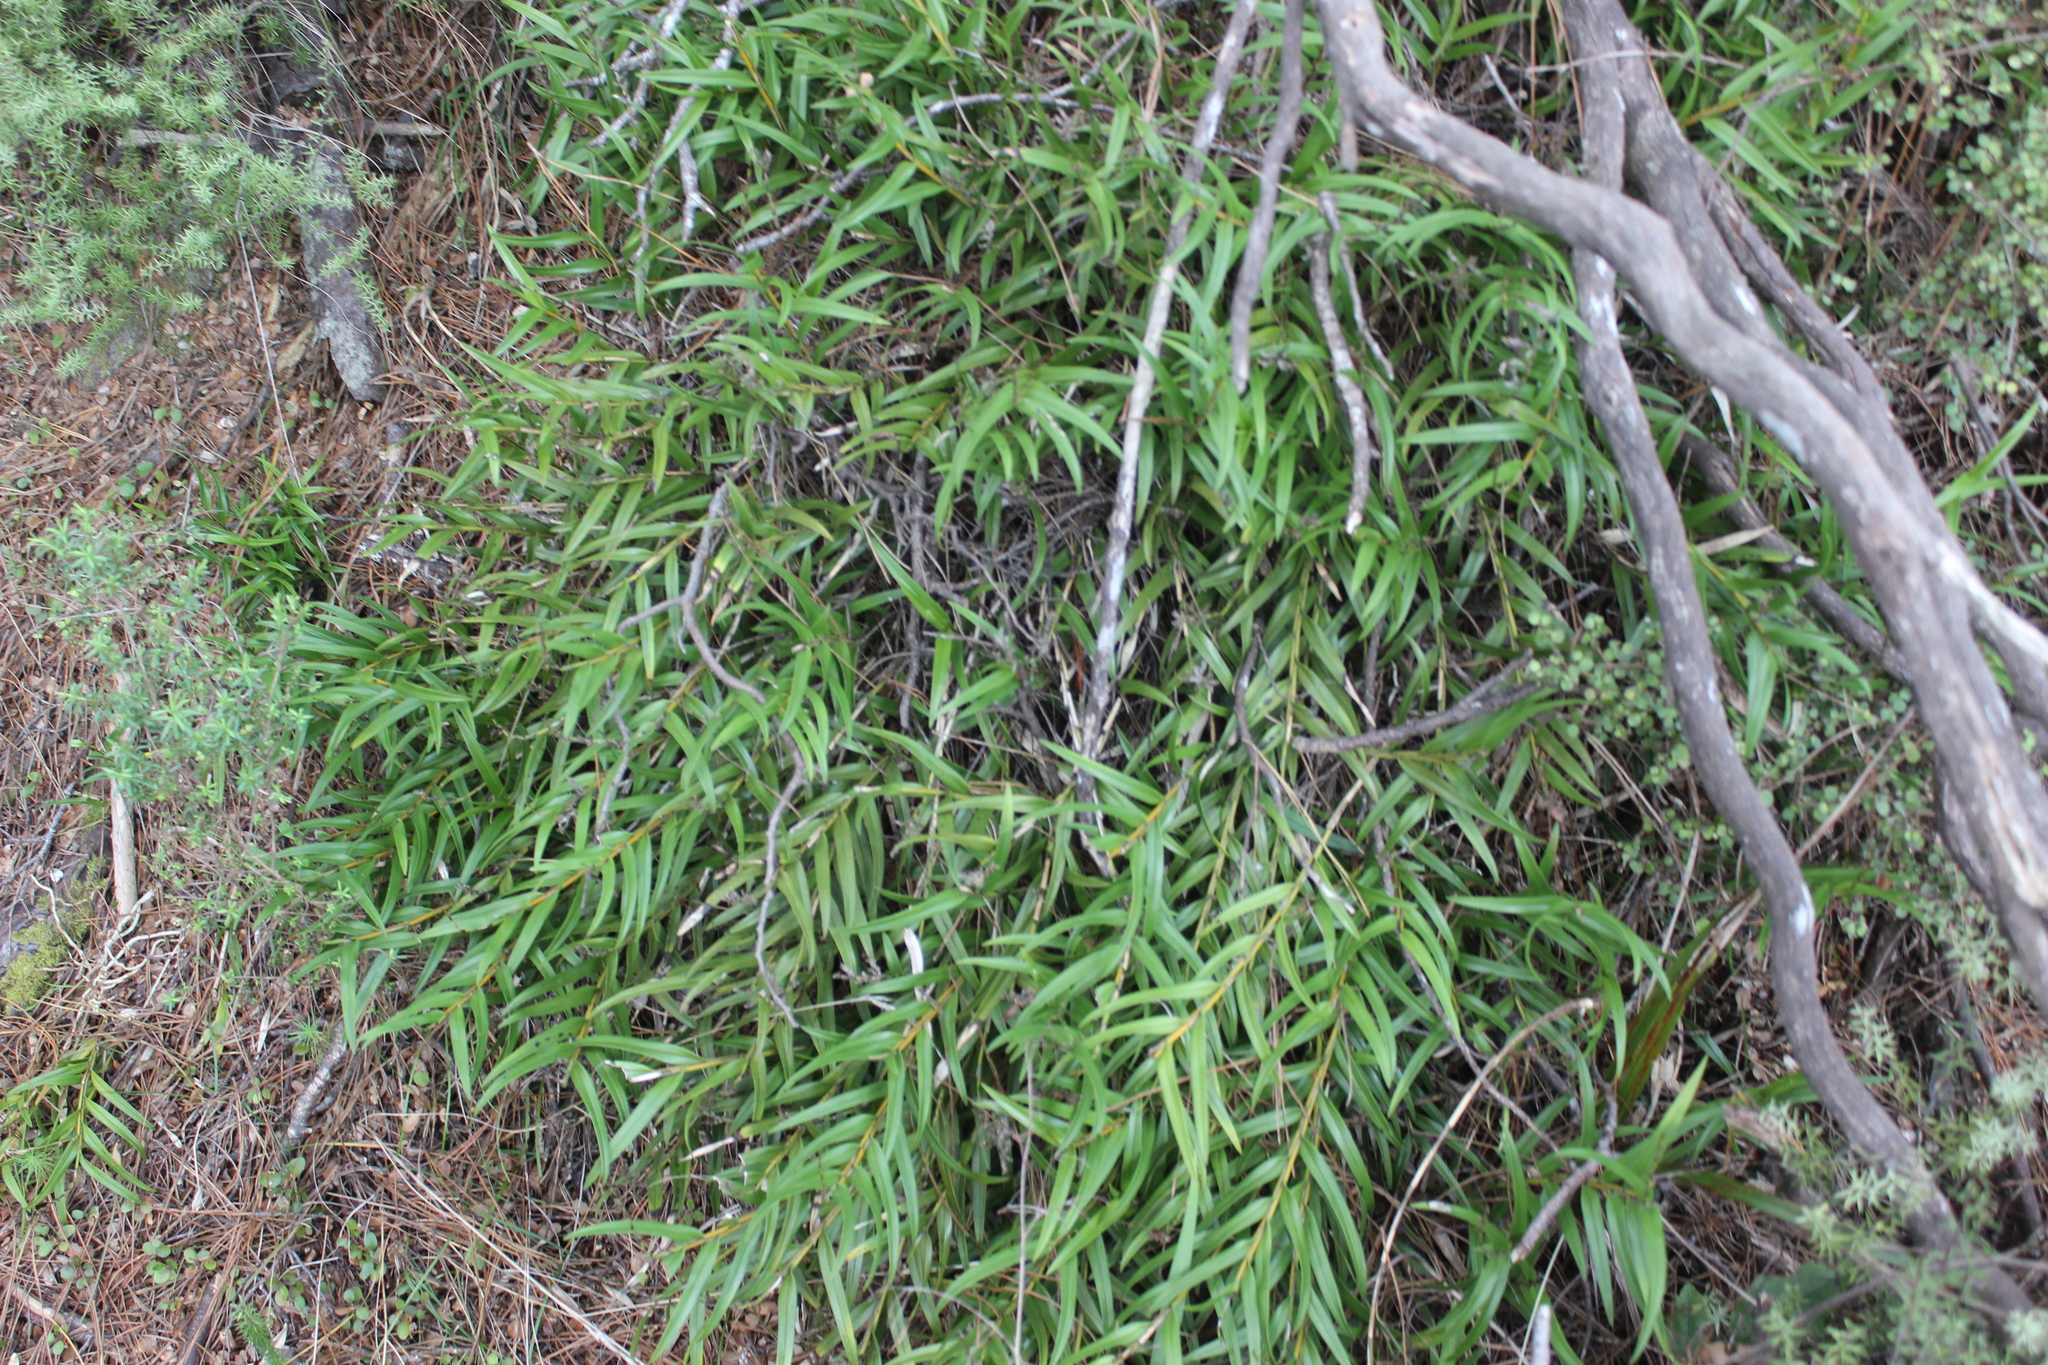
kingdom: Plantae
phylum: Tracheophyta
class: Liliopsida
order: Asparagales
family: Orchidaceae
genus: Earina
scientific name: Earina autumnalis
